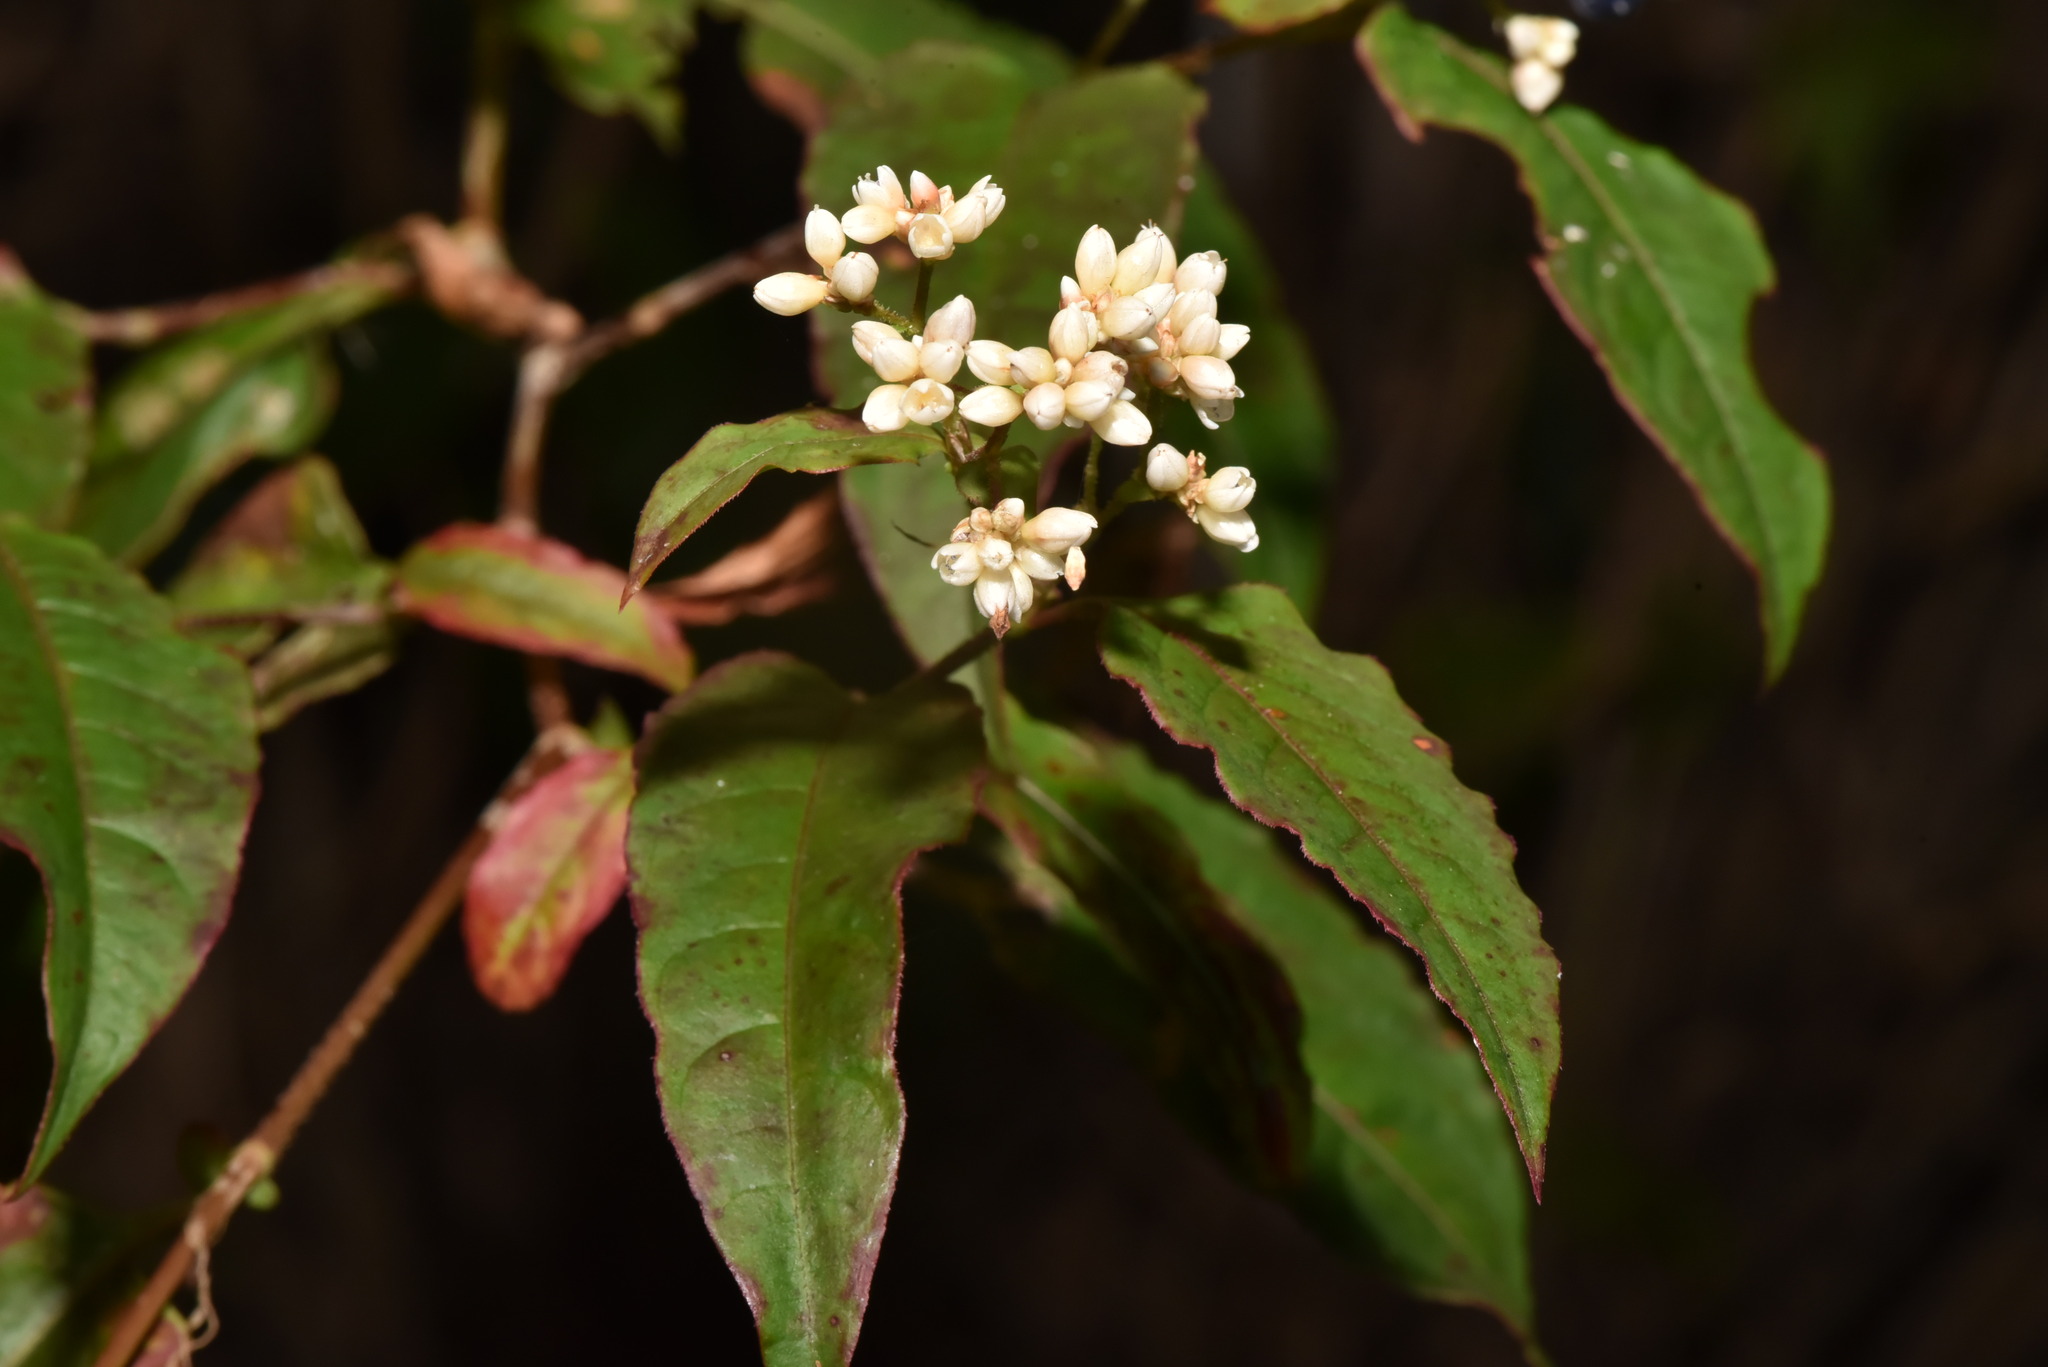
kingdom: Plantae
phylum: Tracheophyta
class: Magnoliopsida
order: Caryophyllales
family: Polygonaceae
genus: Persicaria
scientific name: Persicaria chinensis
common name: Chinese knotweed
